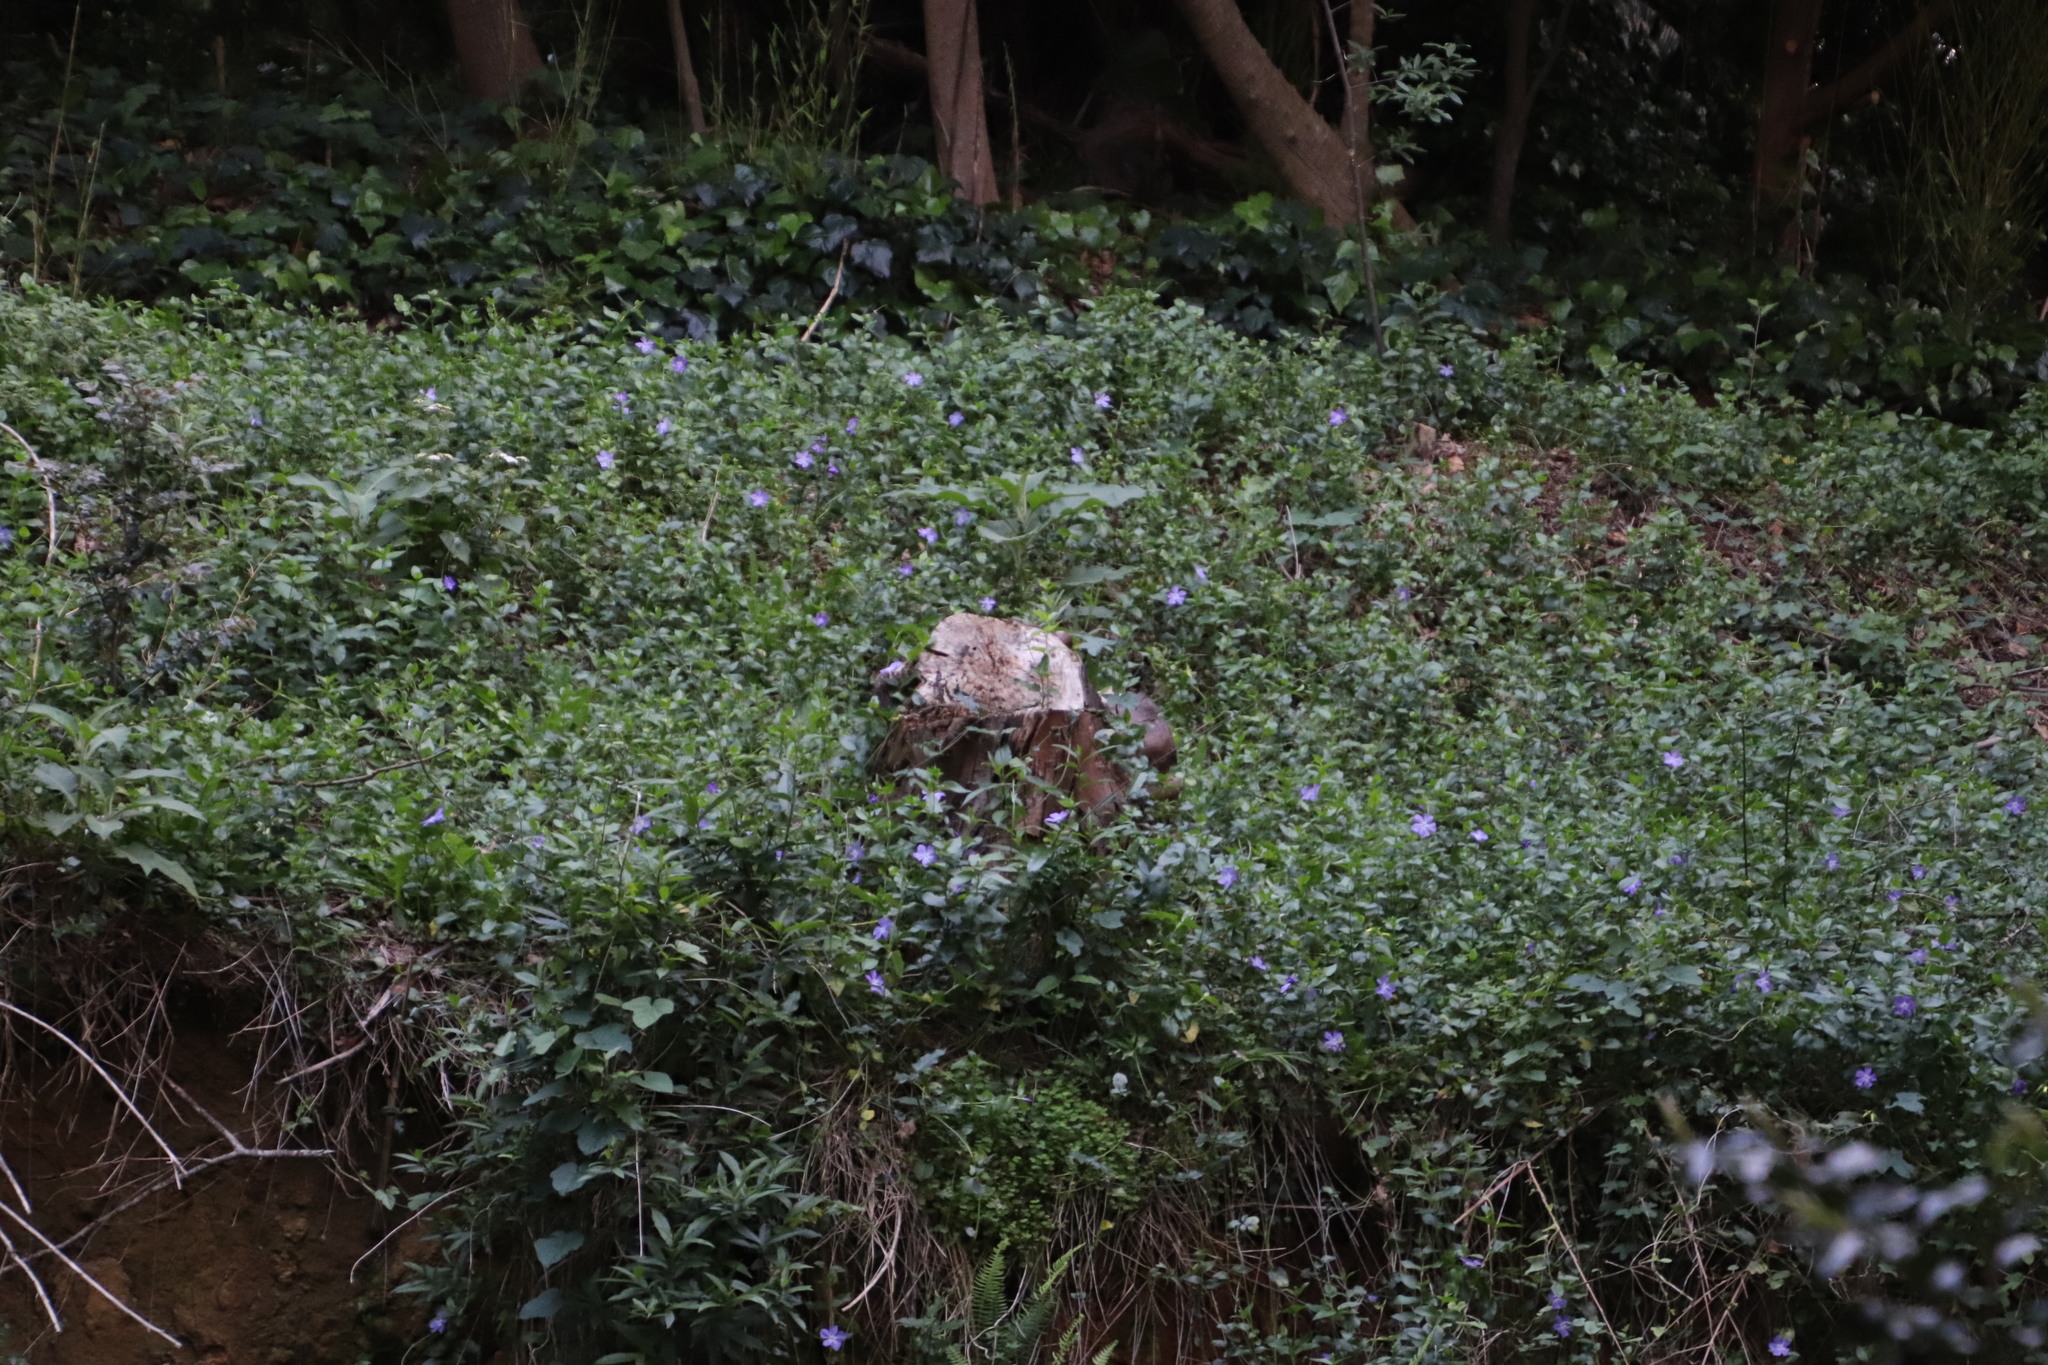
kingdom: Plantae
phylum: Tracheophyta
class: Magnoliopsida
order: Gentianales
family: Apocynaceae
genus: Vinca
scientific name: Vinca major
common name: Greater periwinkle
